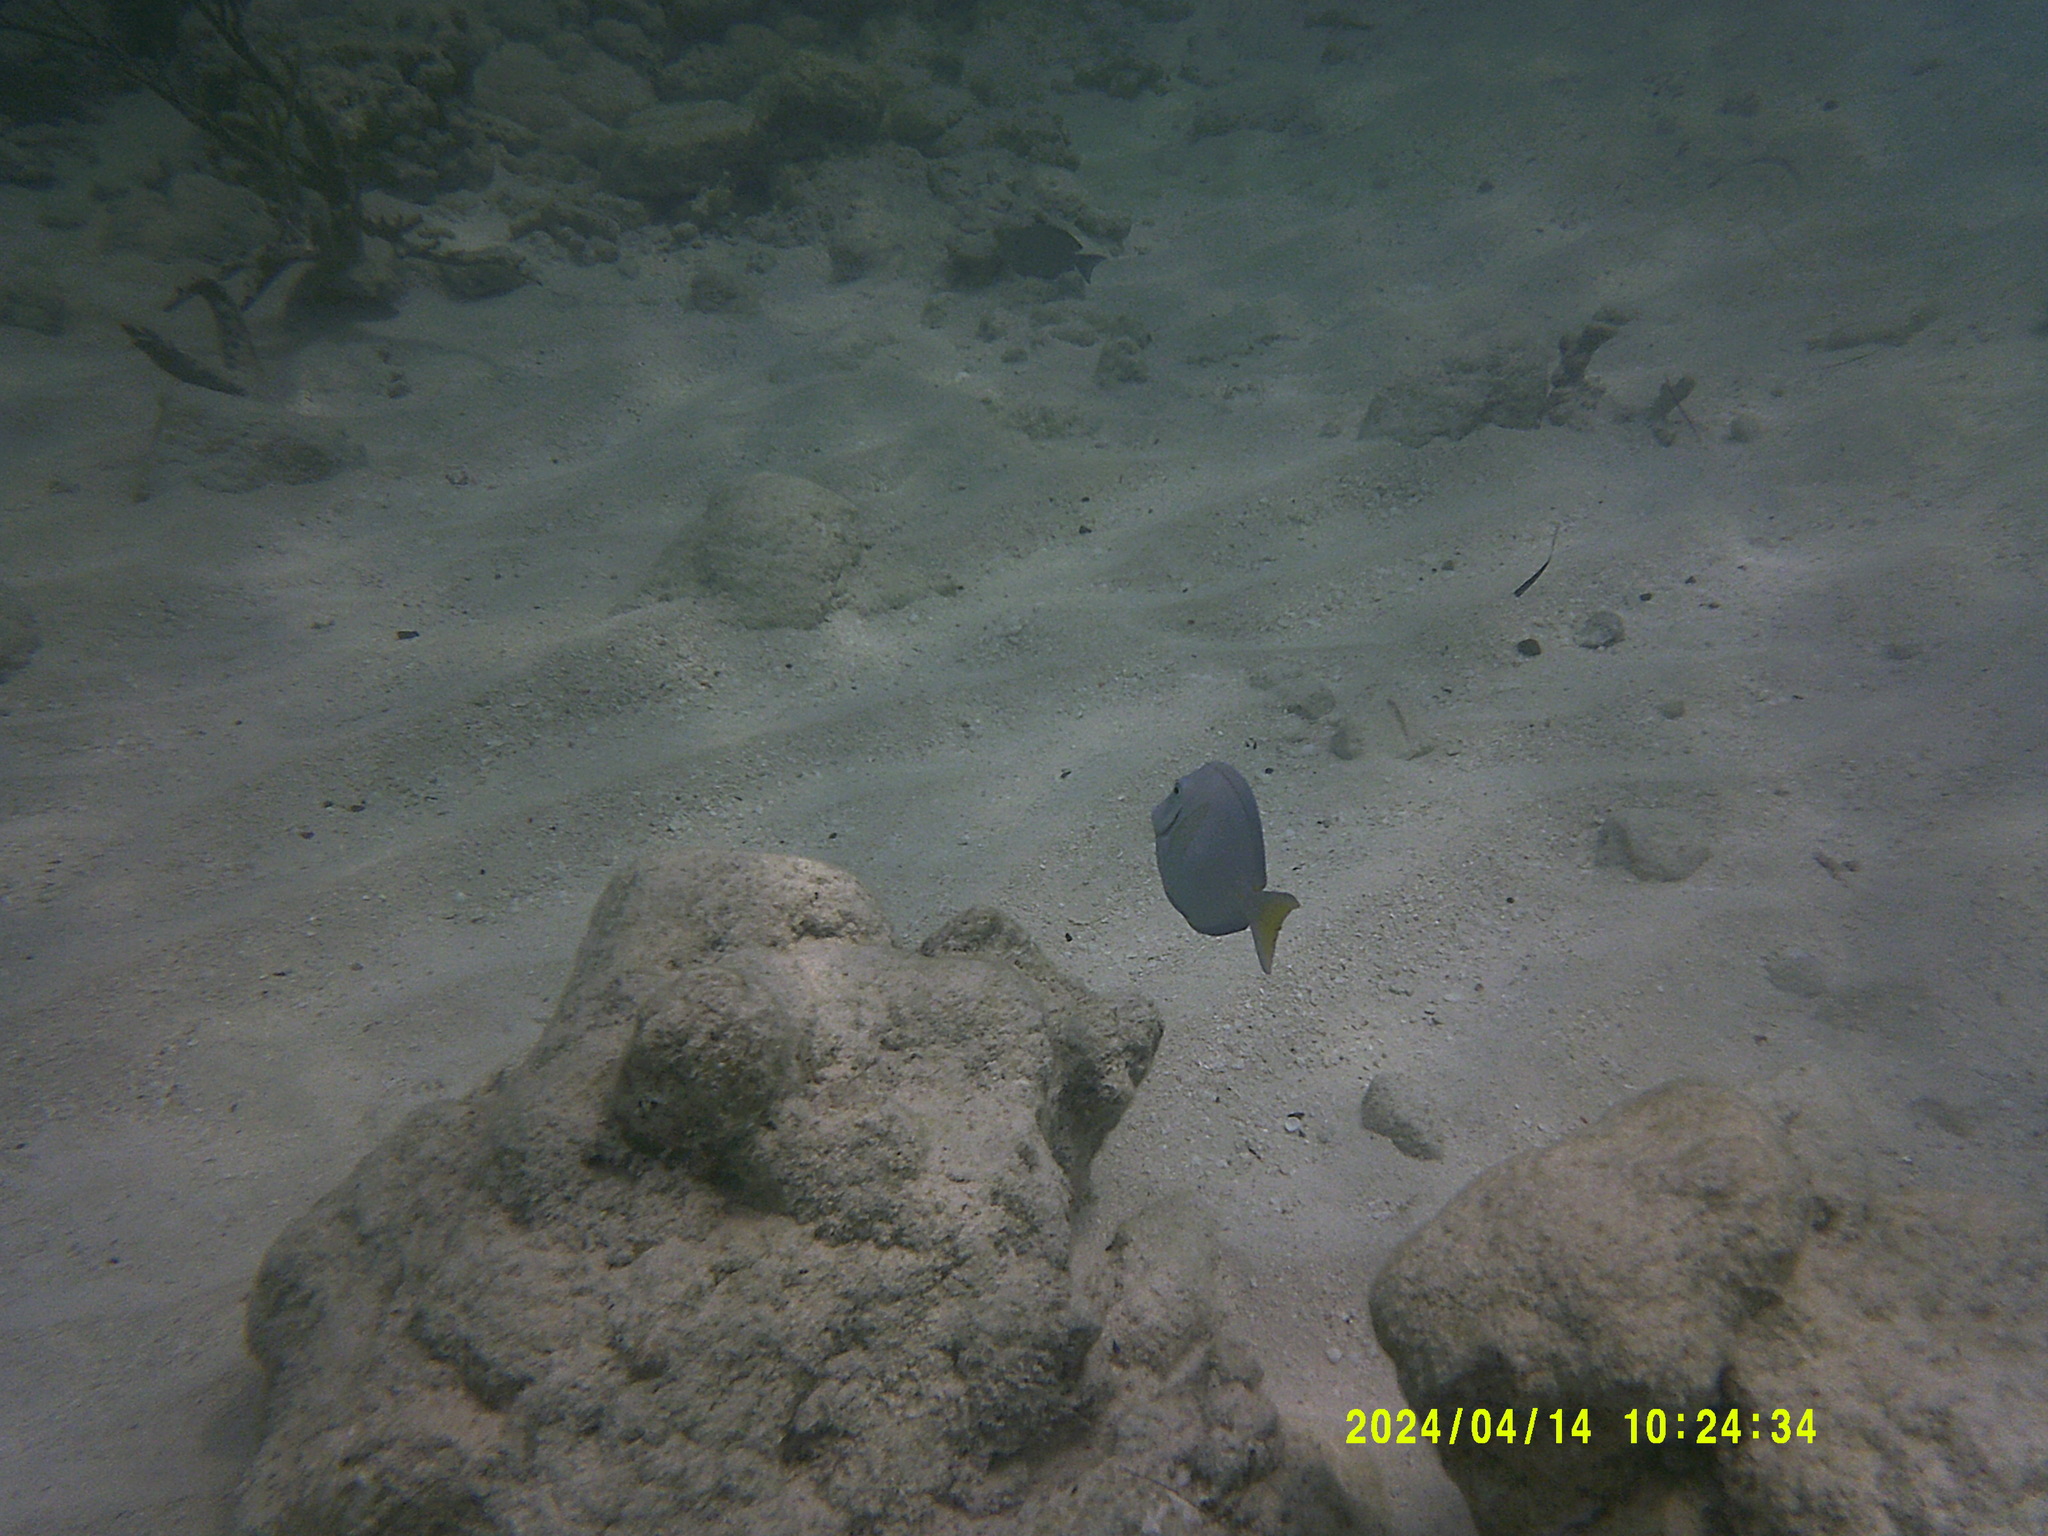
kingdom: Animalia
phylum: Chordata
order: Perciformes
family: Acanthuridae
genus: Acanthurus
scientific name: Acanthurus coeruleus
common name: Blue tang
